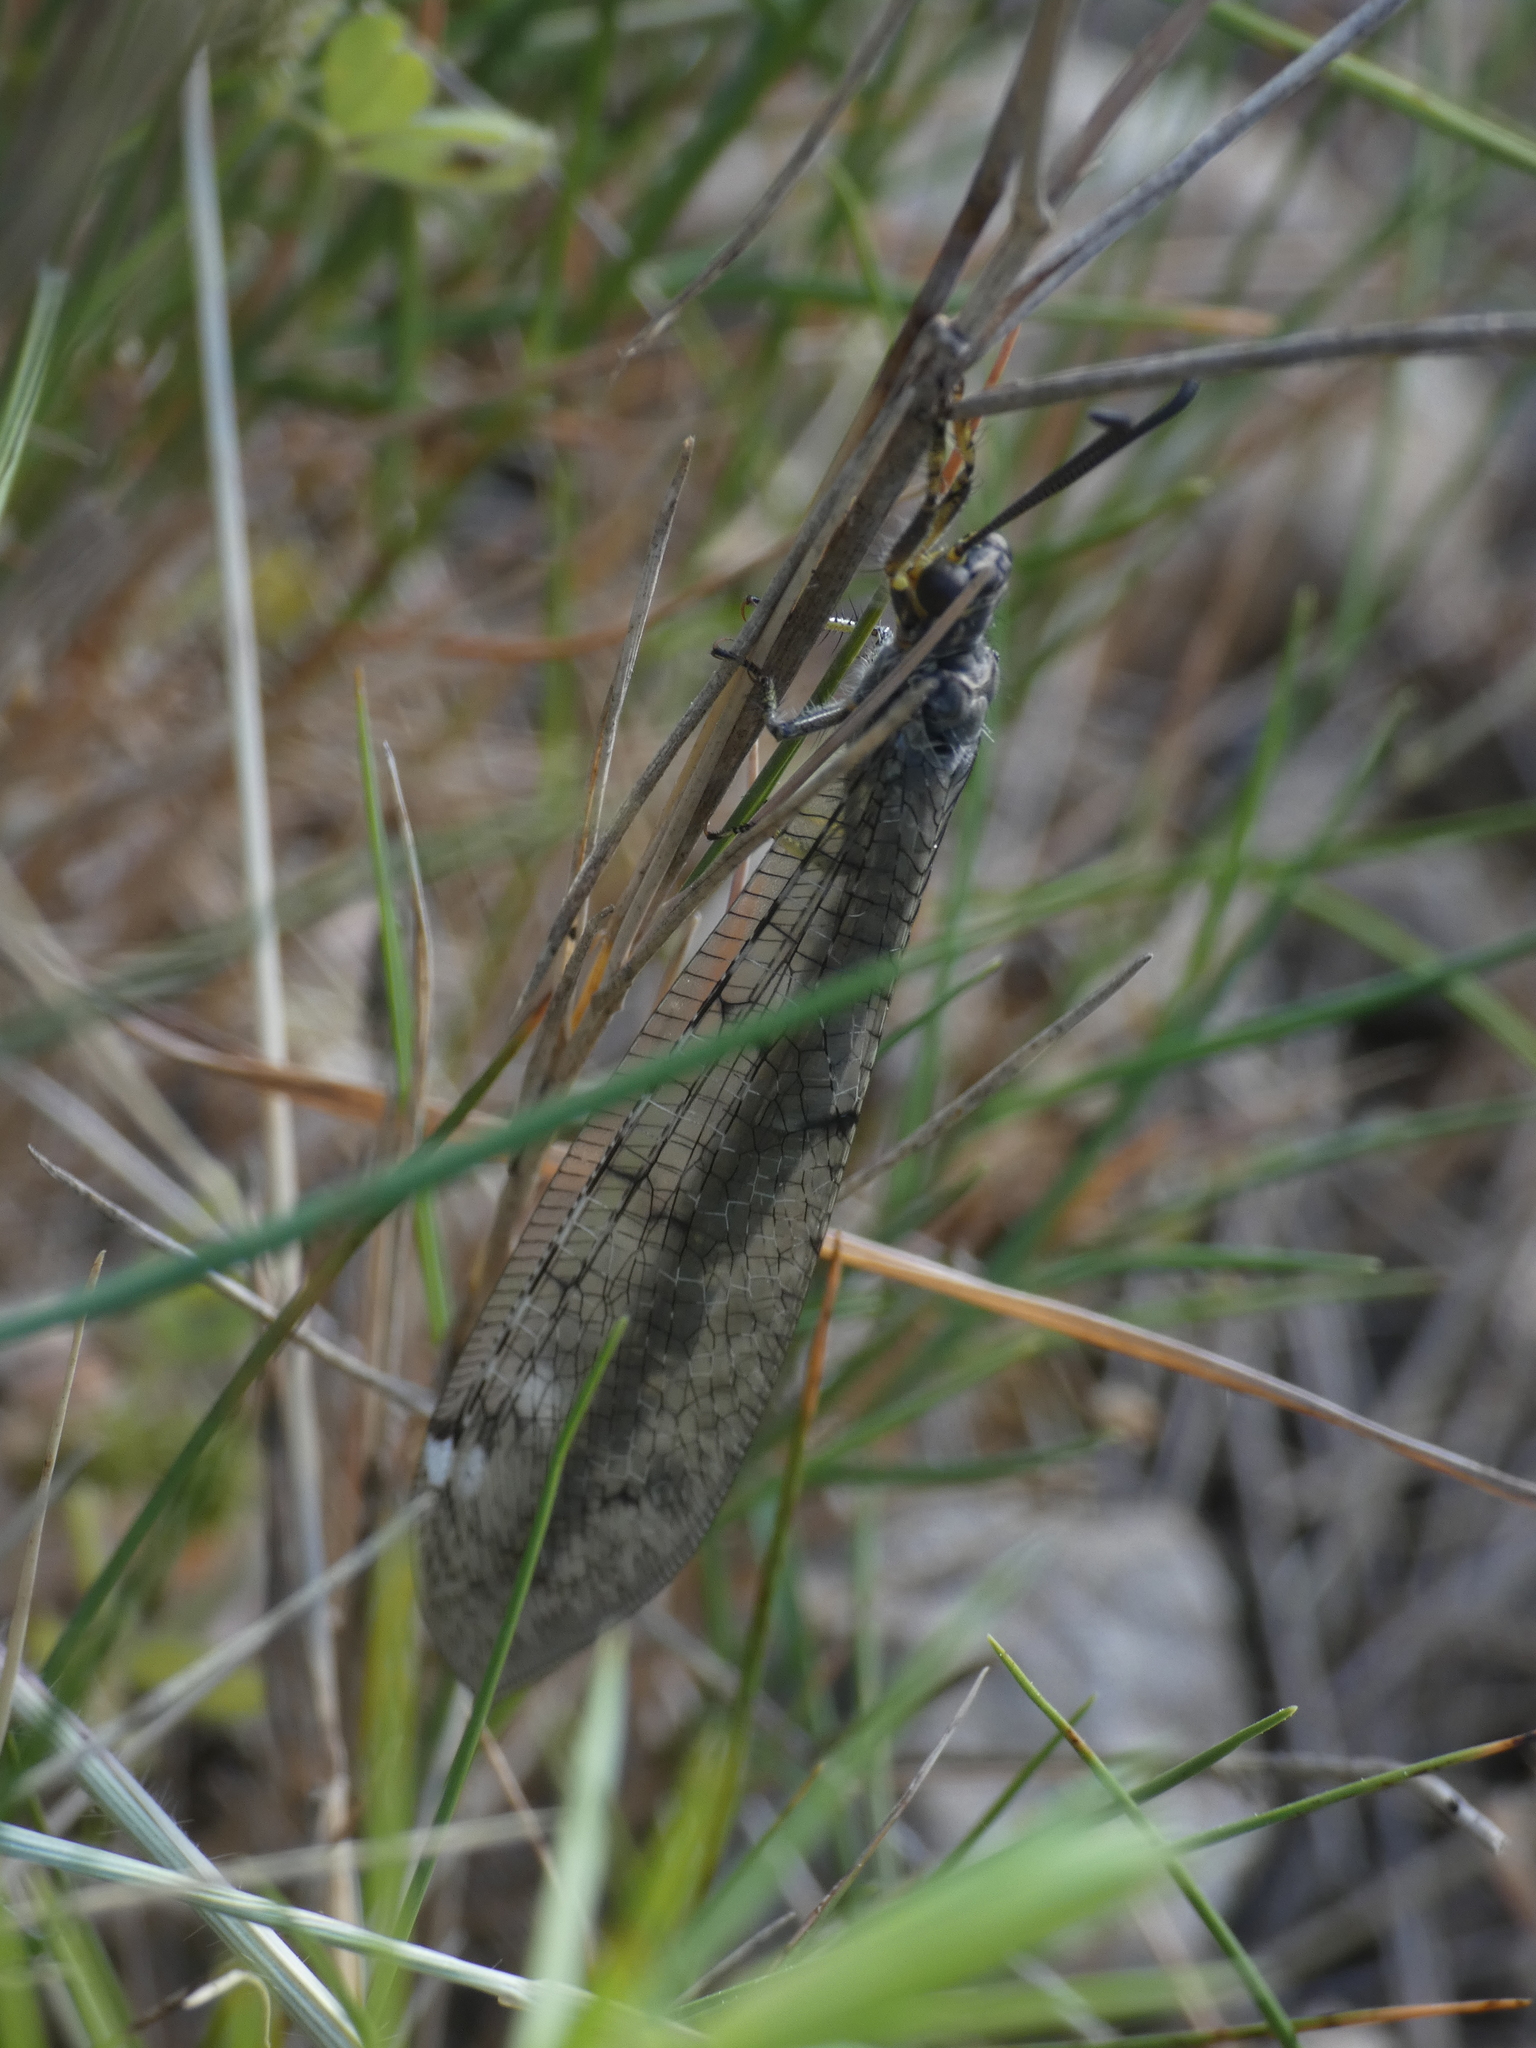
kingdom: Animalia
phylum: Arthropoda
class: Insecta
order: Neuroptera
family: Myrmeleontidae
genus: Distoleon
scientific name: Distoleon tetragrammicus
